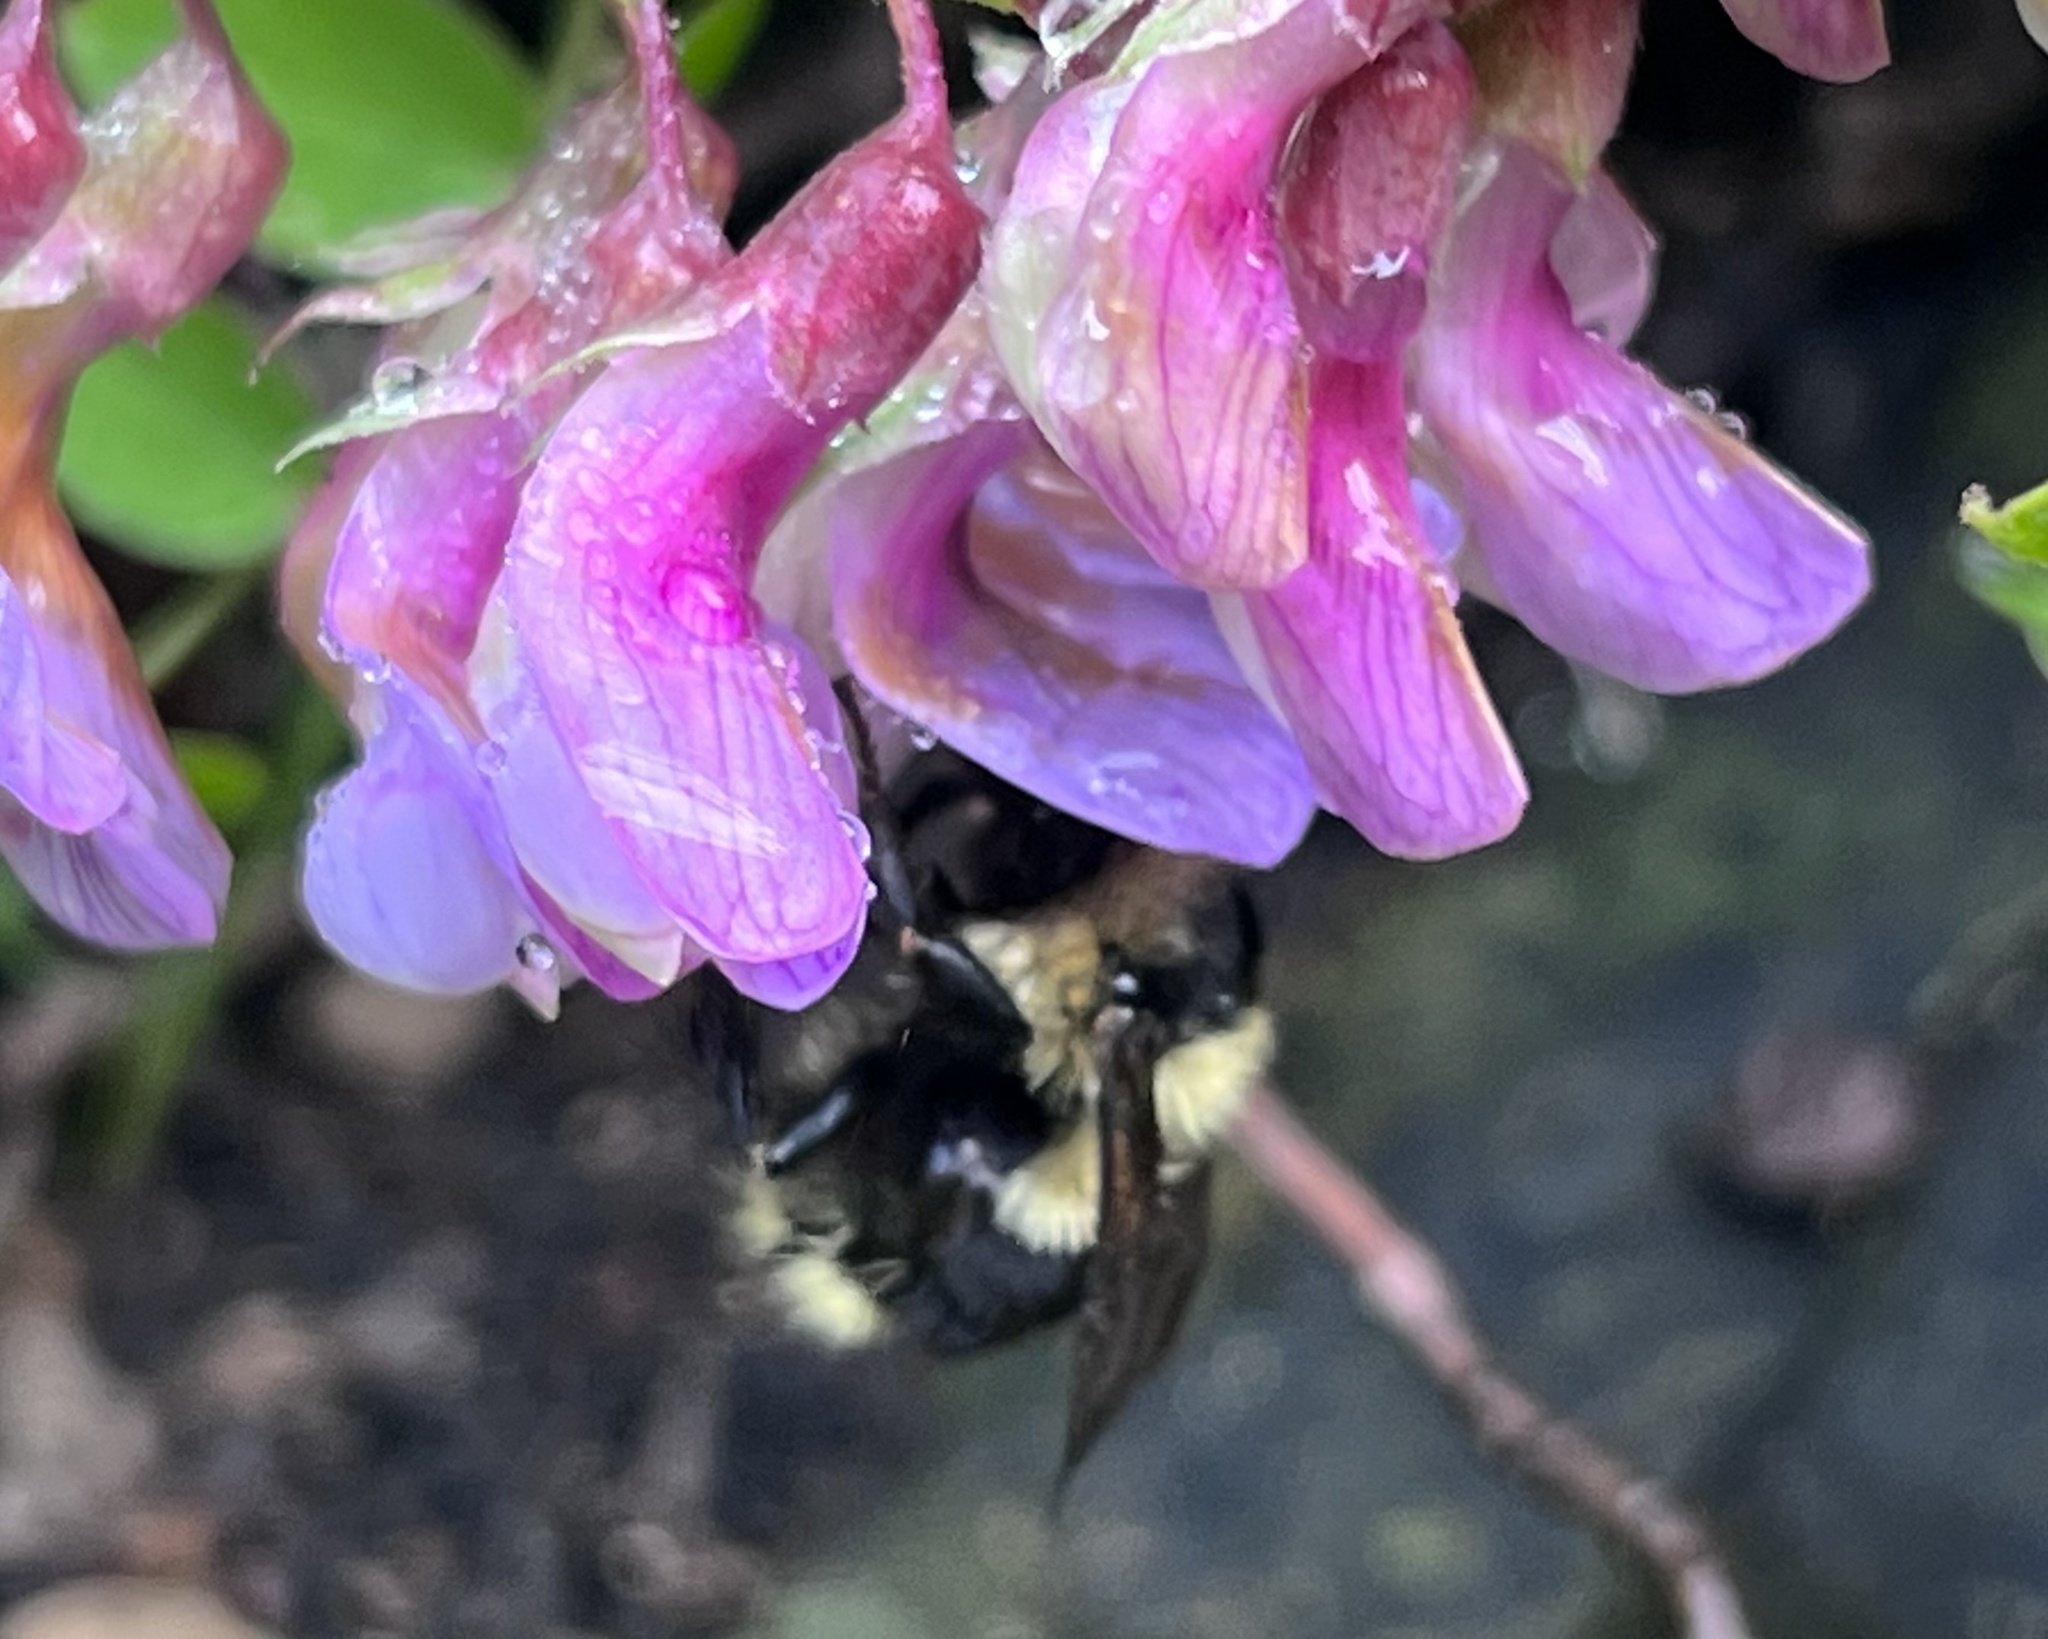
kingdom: Animalia
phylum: Arthropoda
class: Insecta
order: Hymenoptera
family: Apidae
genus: Bombus
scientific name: Bombus melanopygus
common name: Black tail bumble bee
